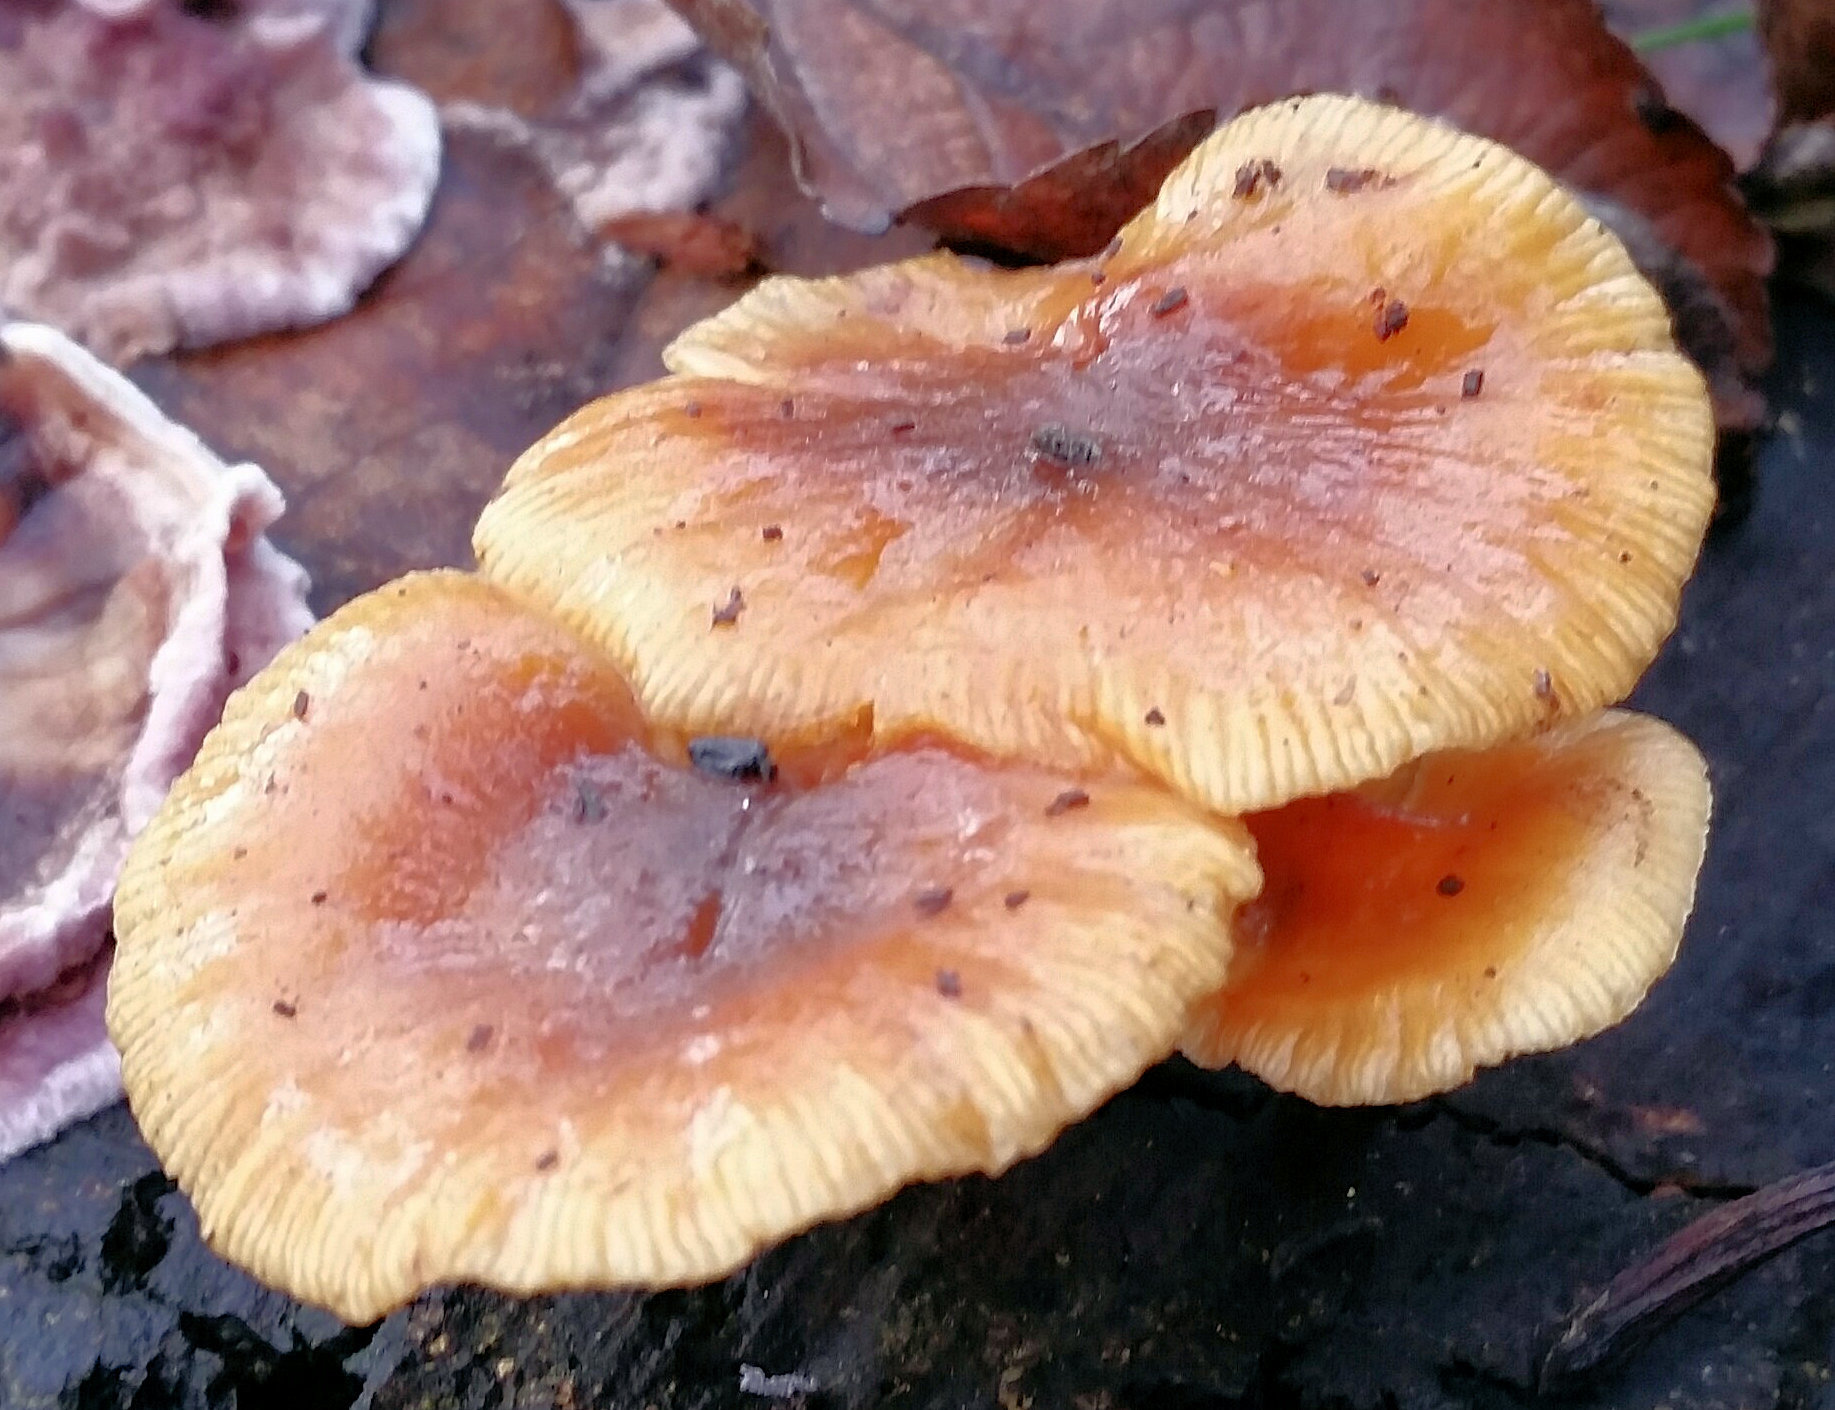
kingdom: Fungi
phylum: Basidiomycota
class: Agaricomycetes
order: Agaricales
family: Physalacriaceae
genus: Flammulina
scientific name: Flammulina
